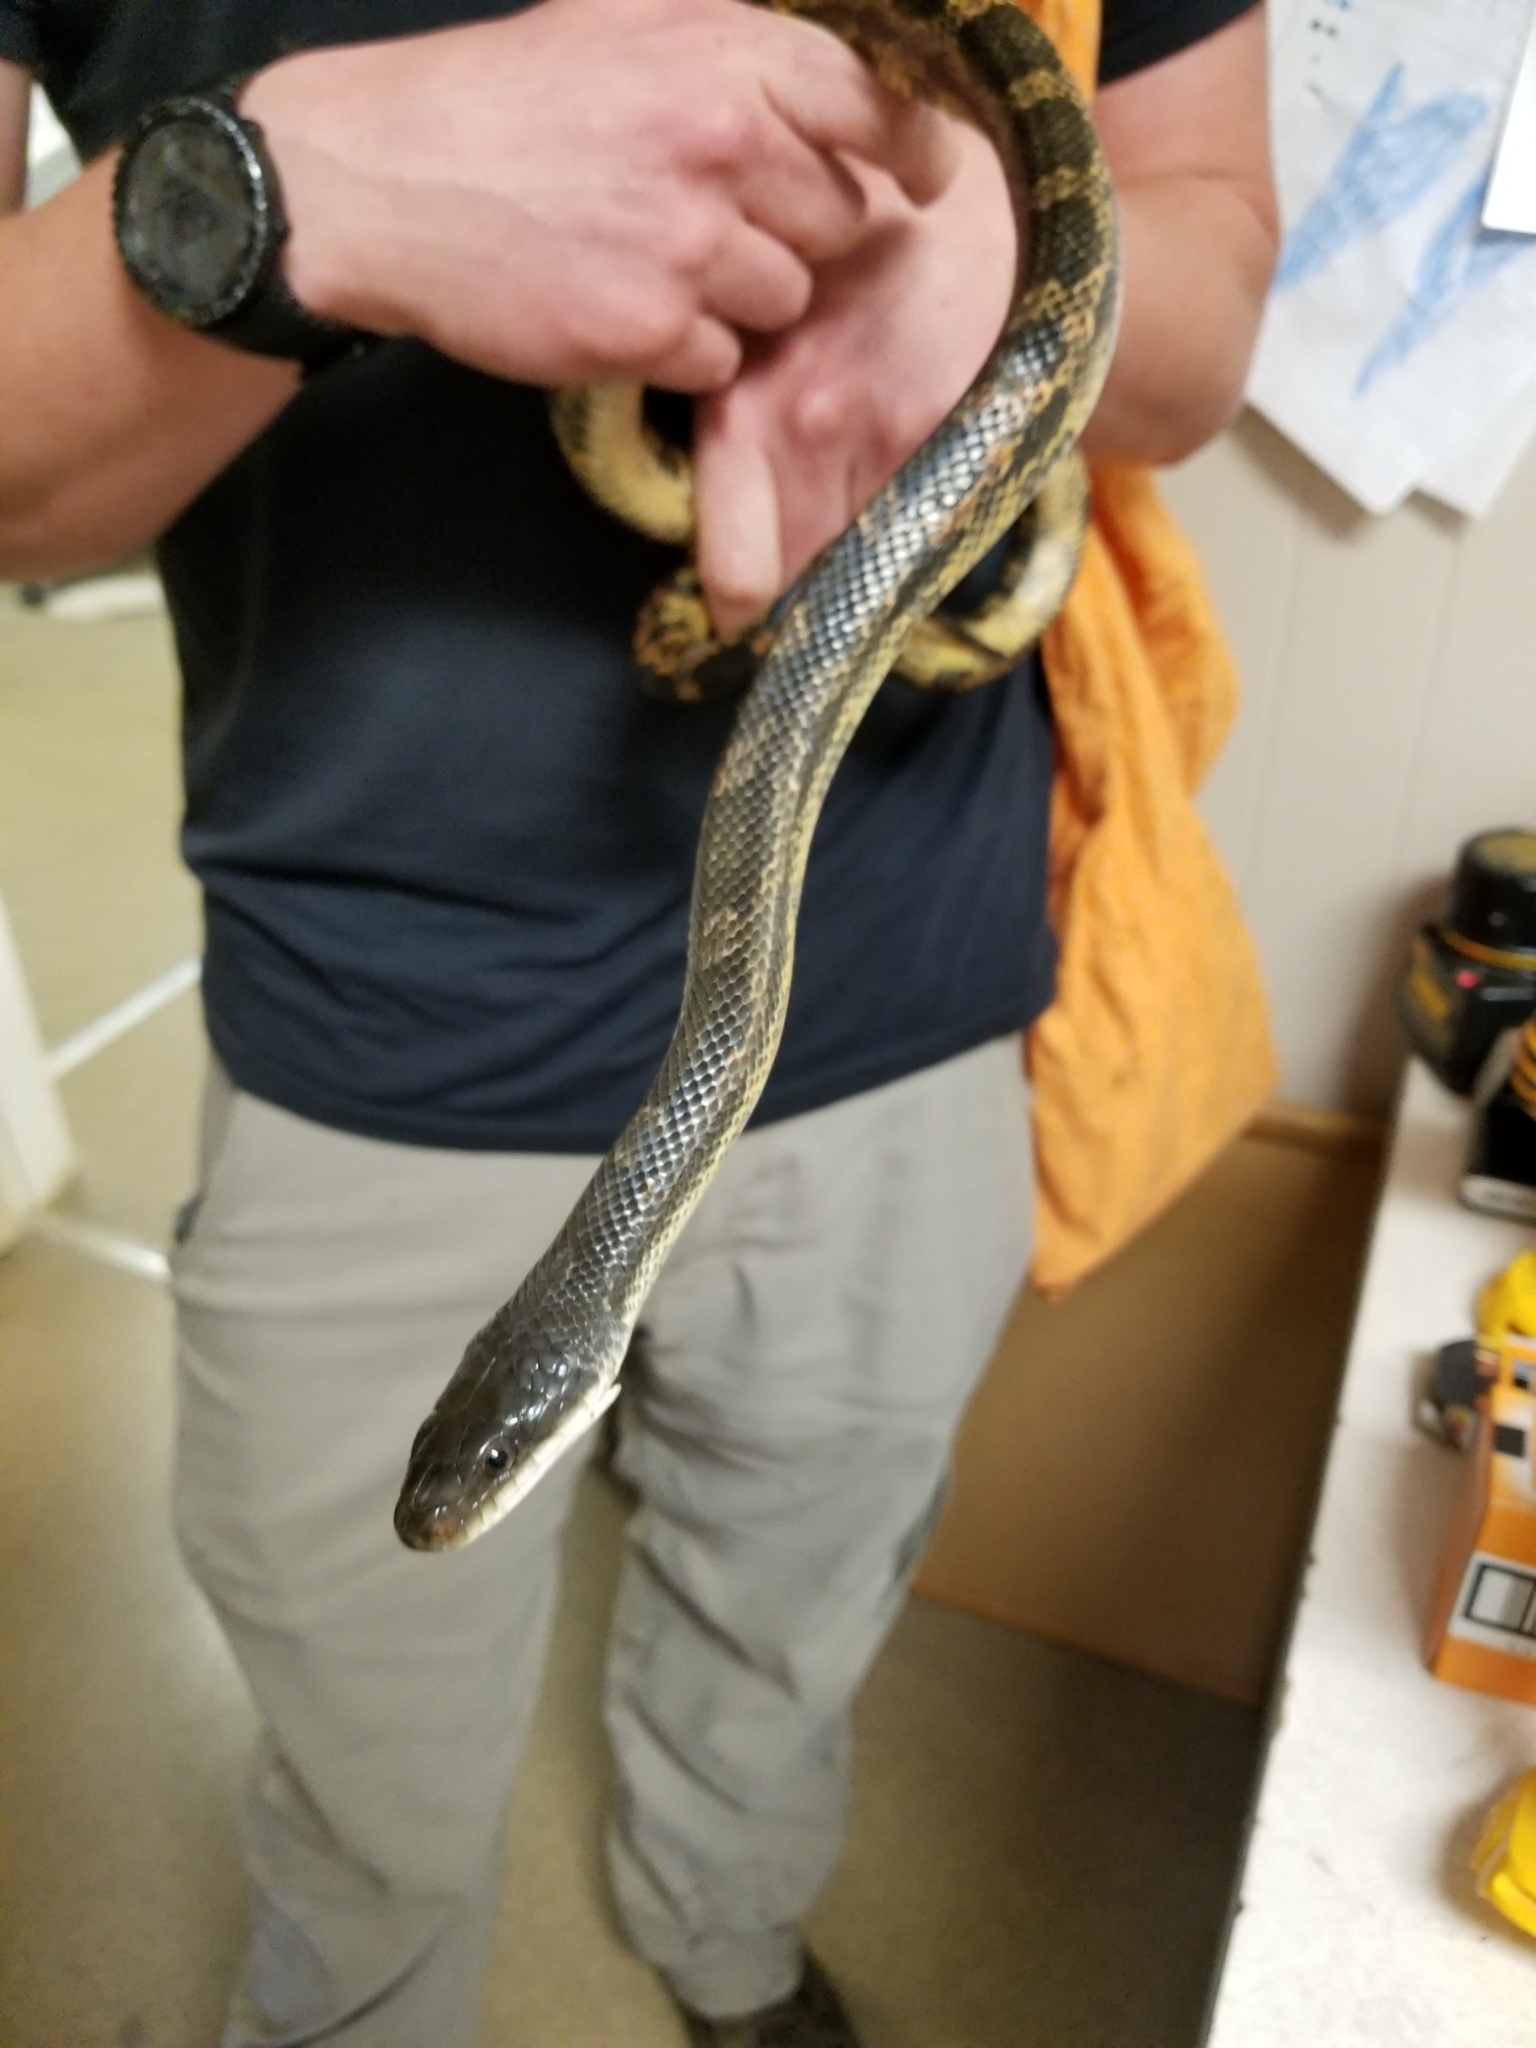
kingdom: Animalia
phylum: Chordata
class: Squamata
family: Colubridae
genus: Pantherophis
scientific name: Pantherophis obsoletus
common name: Black rat snake
